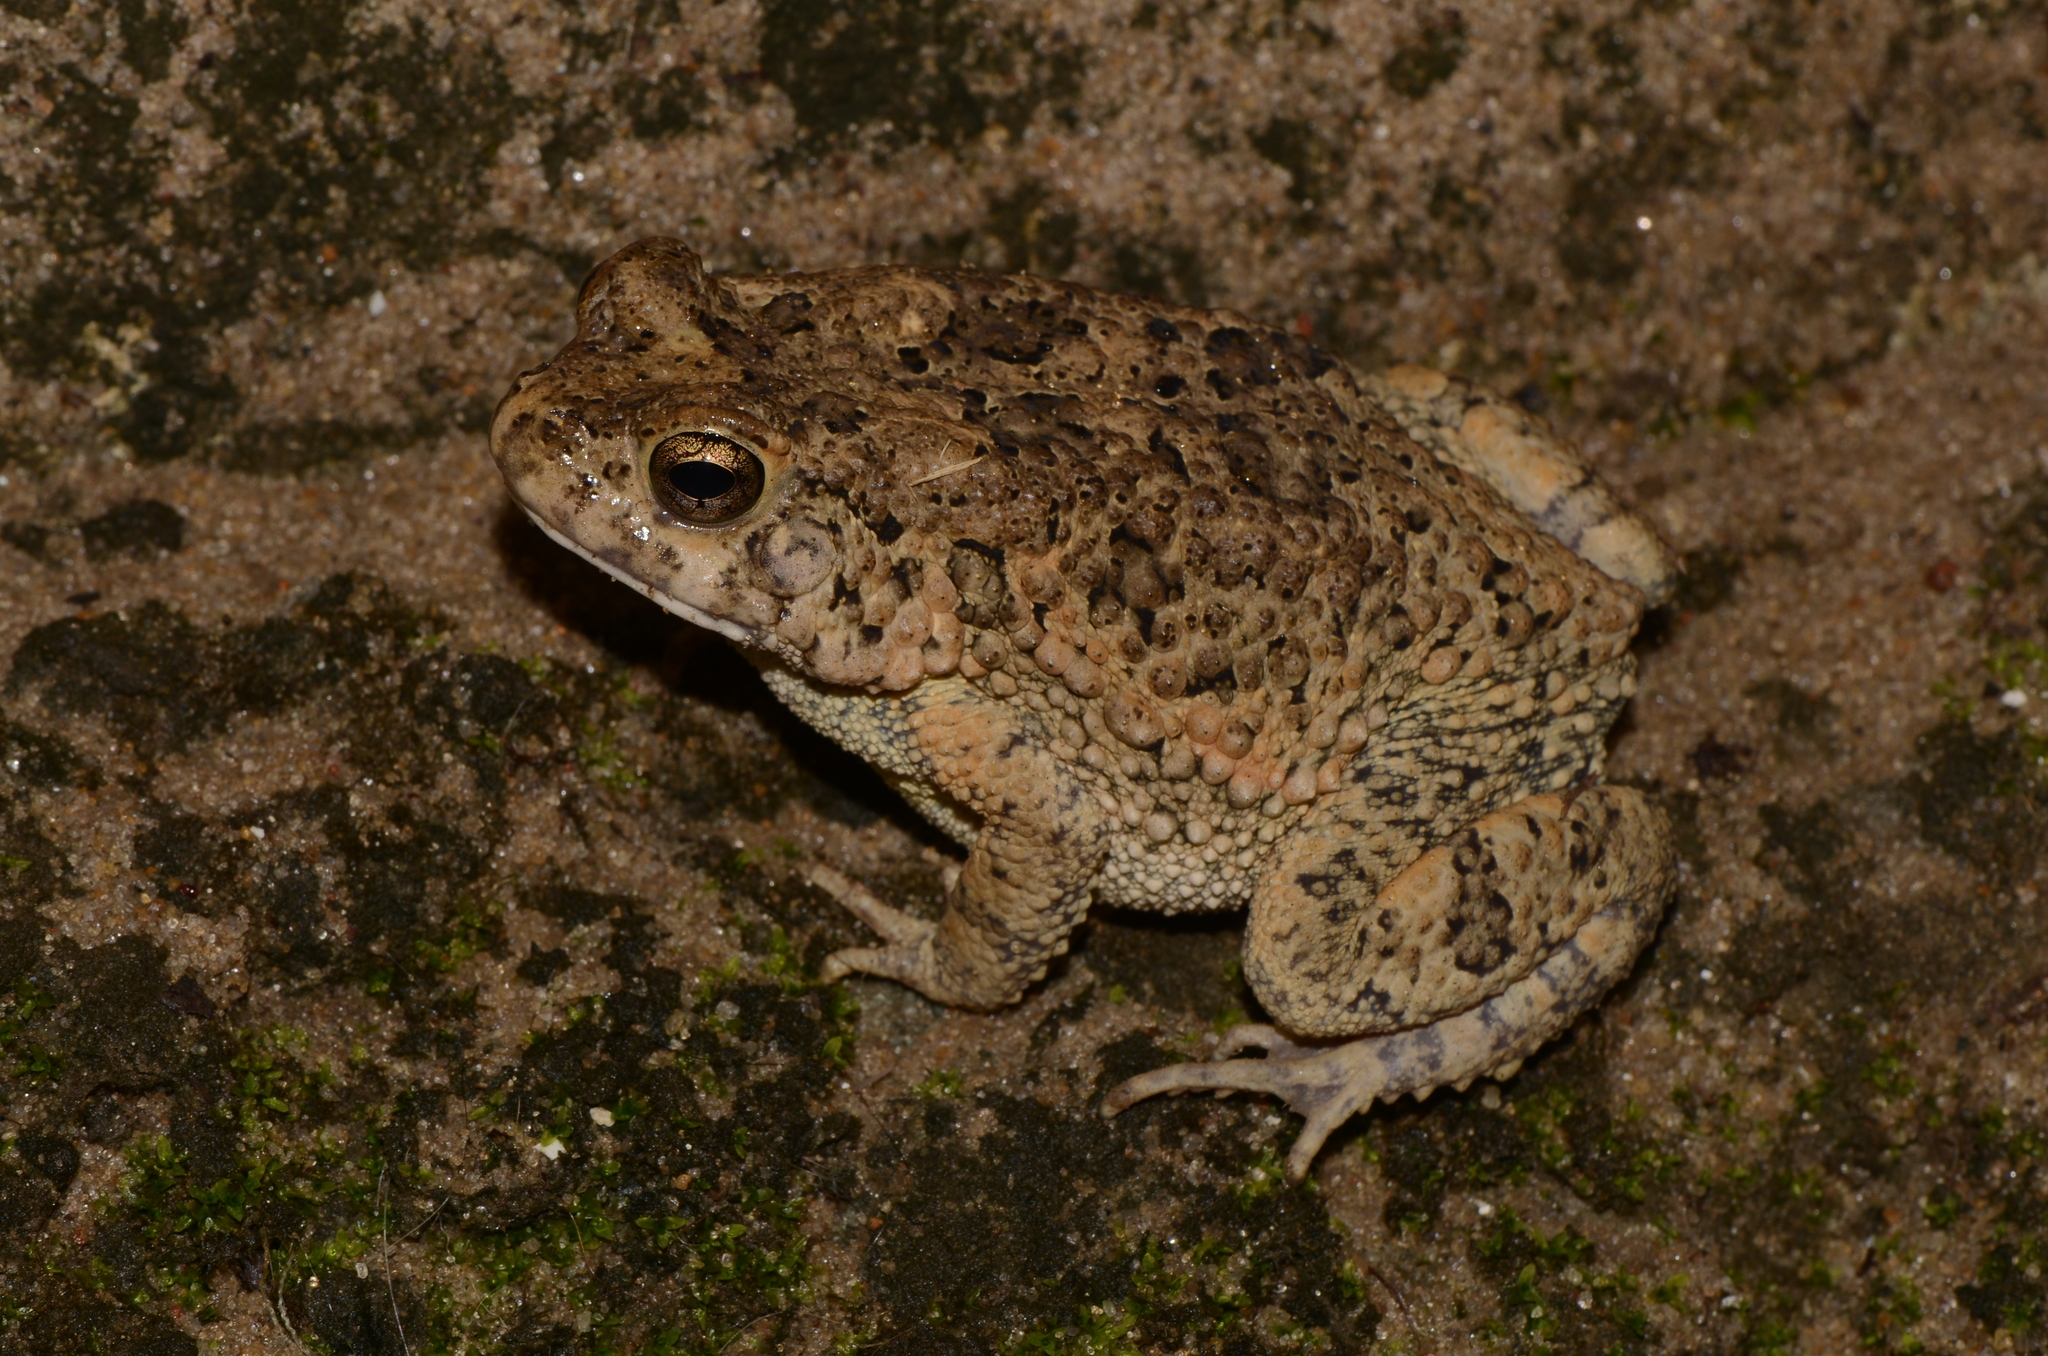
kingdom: Animalia
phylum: Chordata
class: Amphibia
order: Anura
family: Bufonidae
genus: Sclerophrys
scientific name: Sclerophrys maculata
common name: Hallowell's toad
